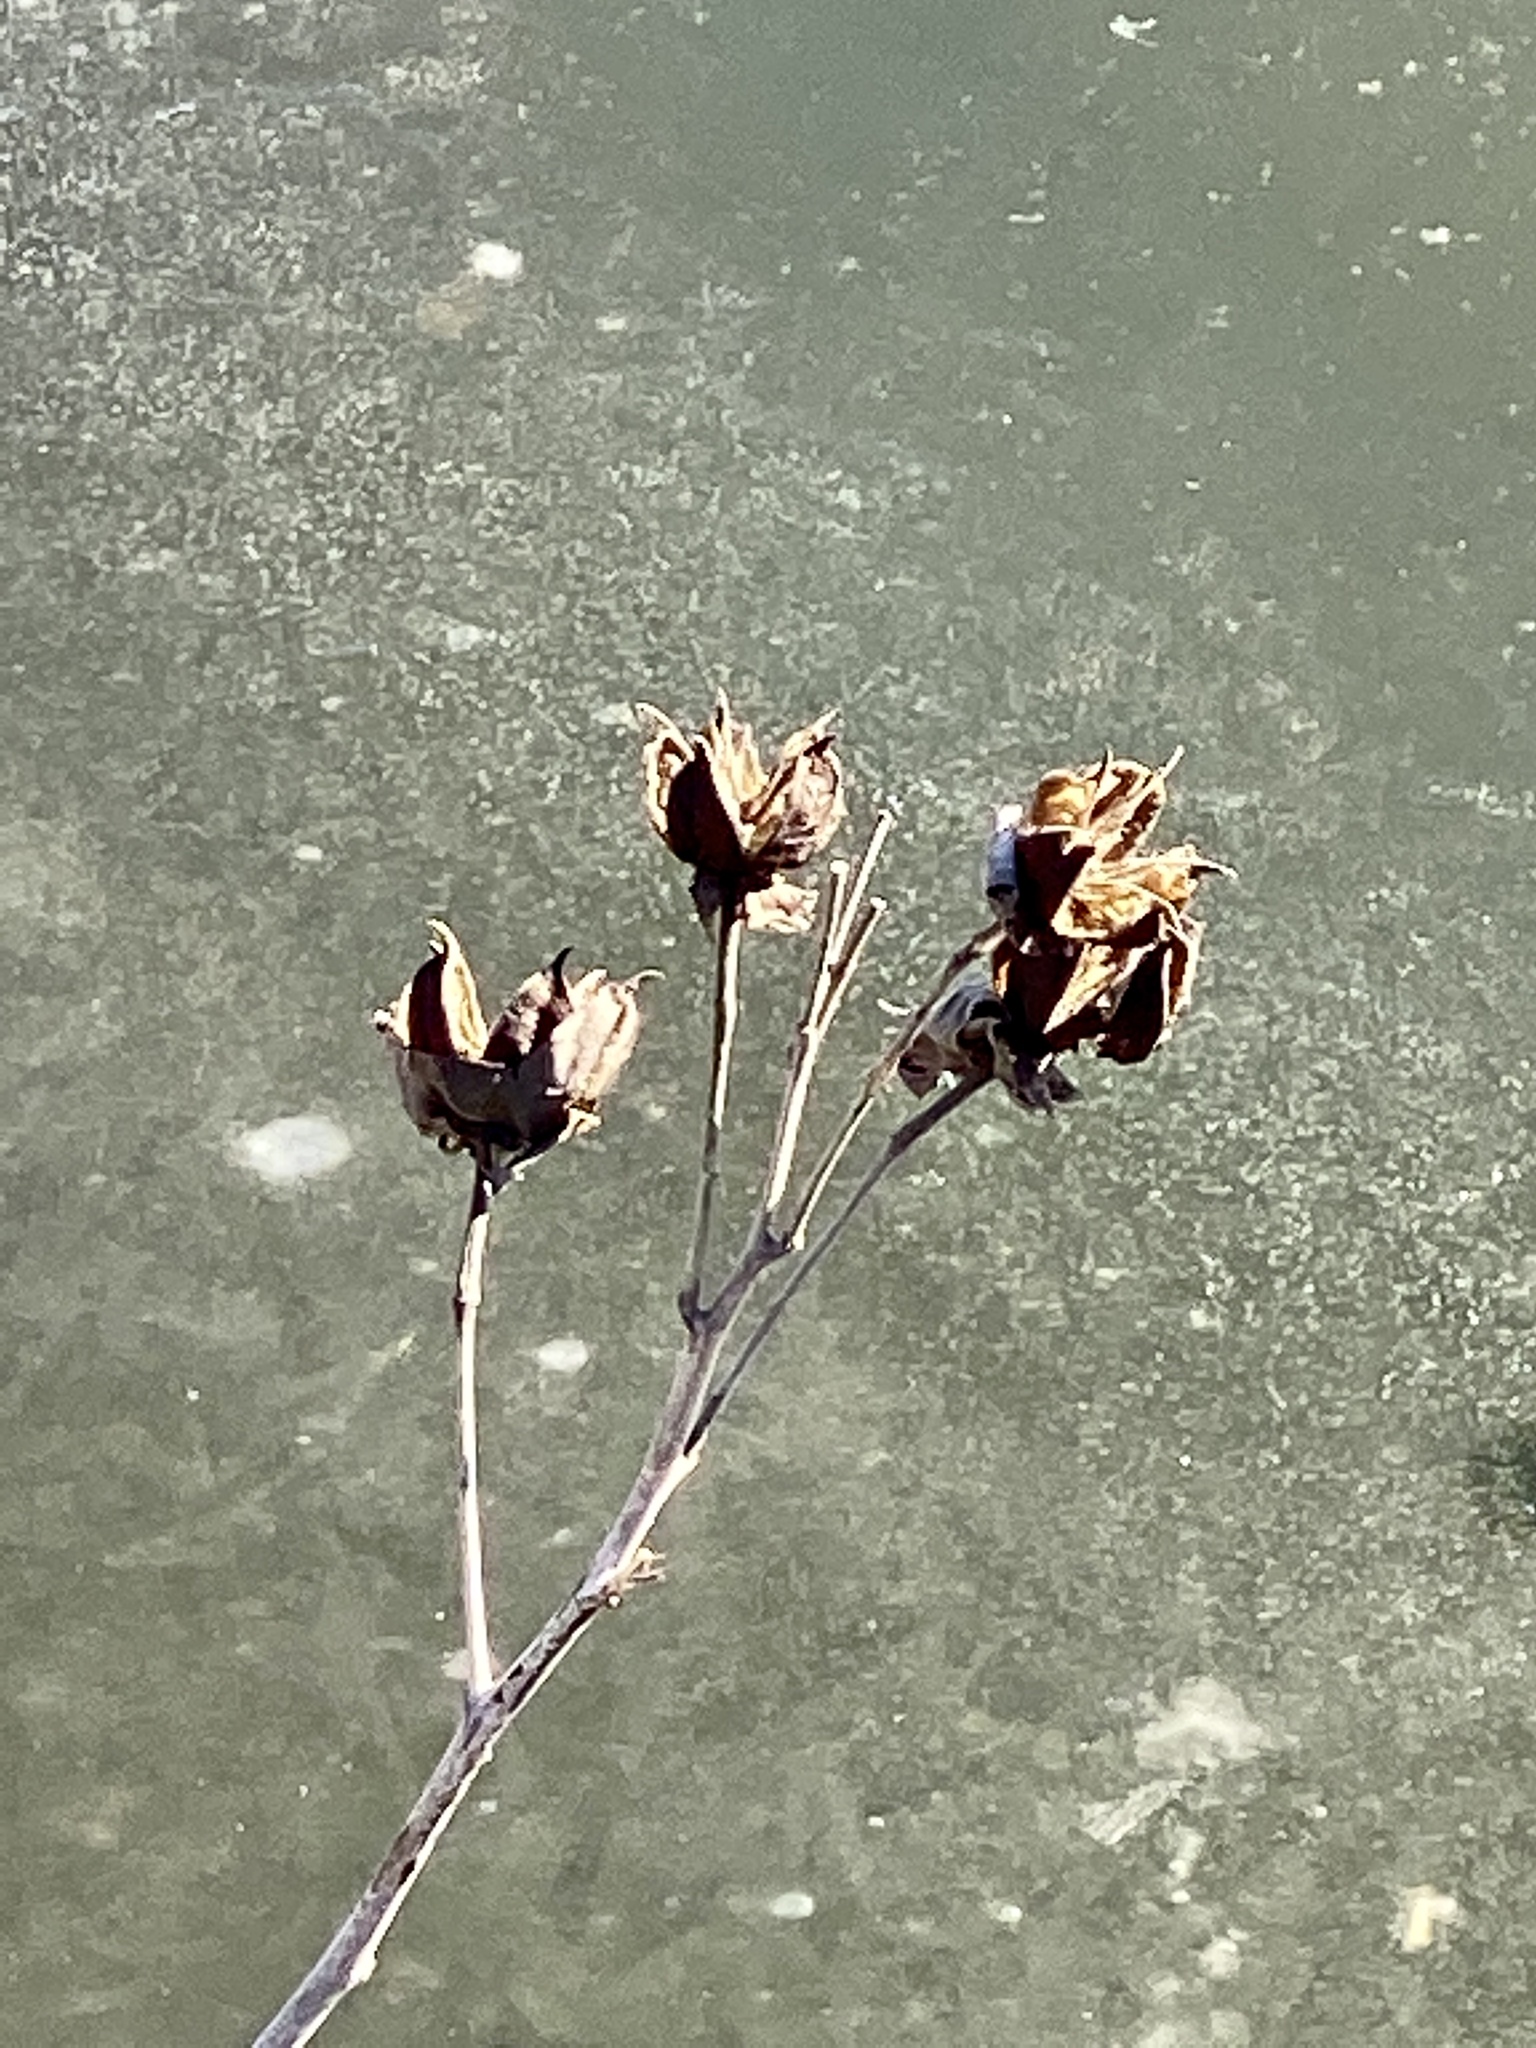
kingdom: Plantae
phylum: Tracheophyta
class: Magnoliopsida
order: Malvales
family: Malvaceae
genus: Hibiscus
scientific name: Hibiscus moscheutos
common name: Common rose-mallow
